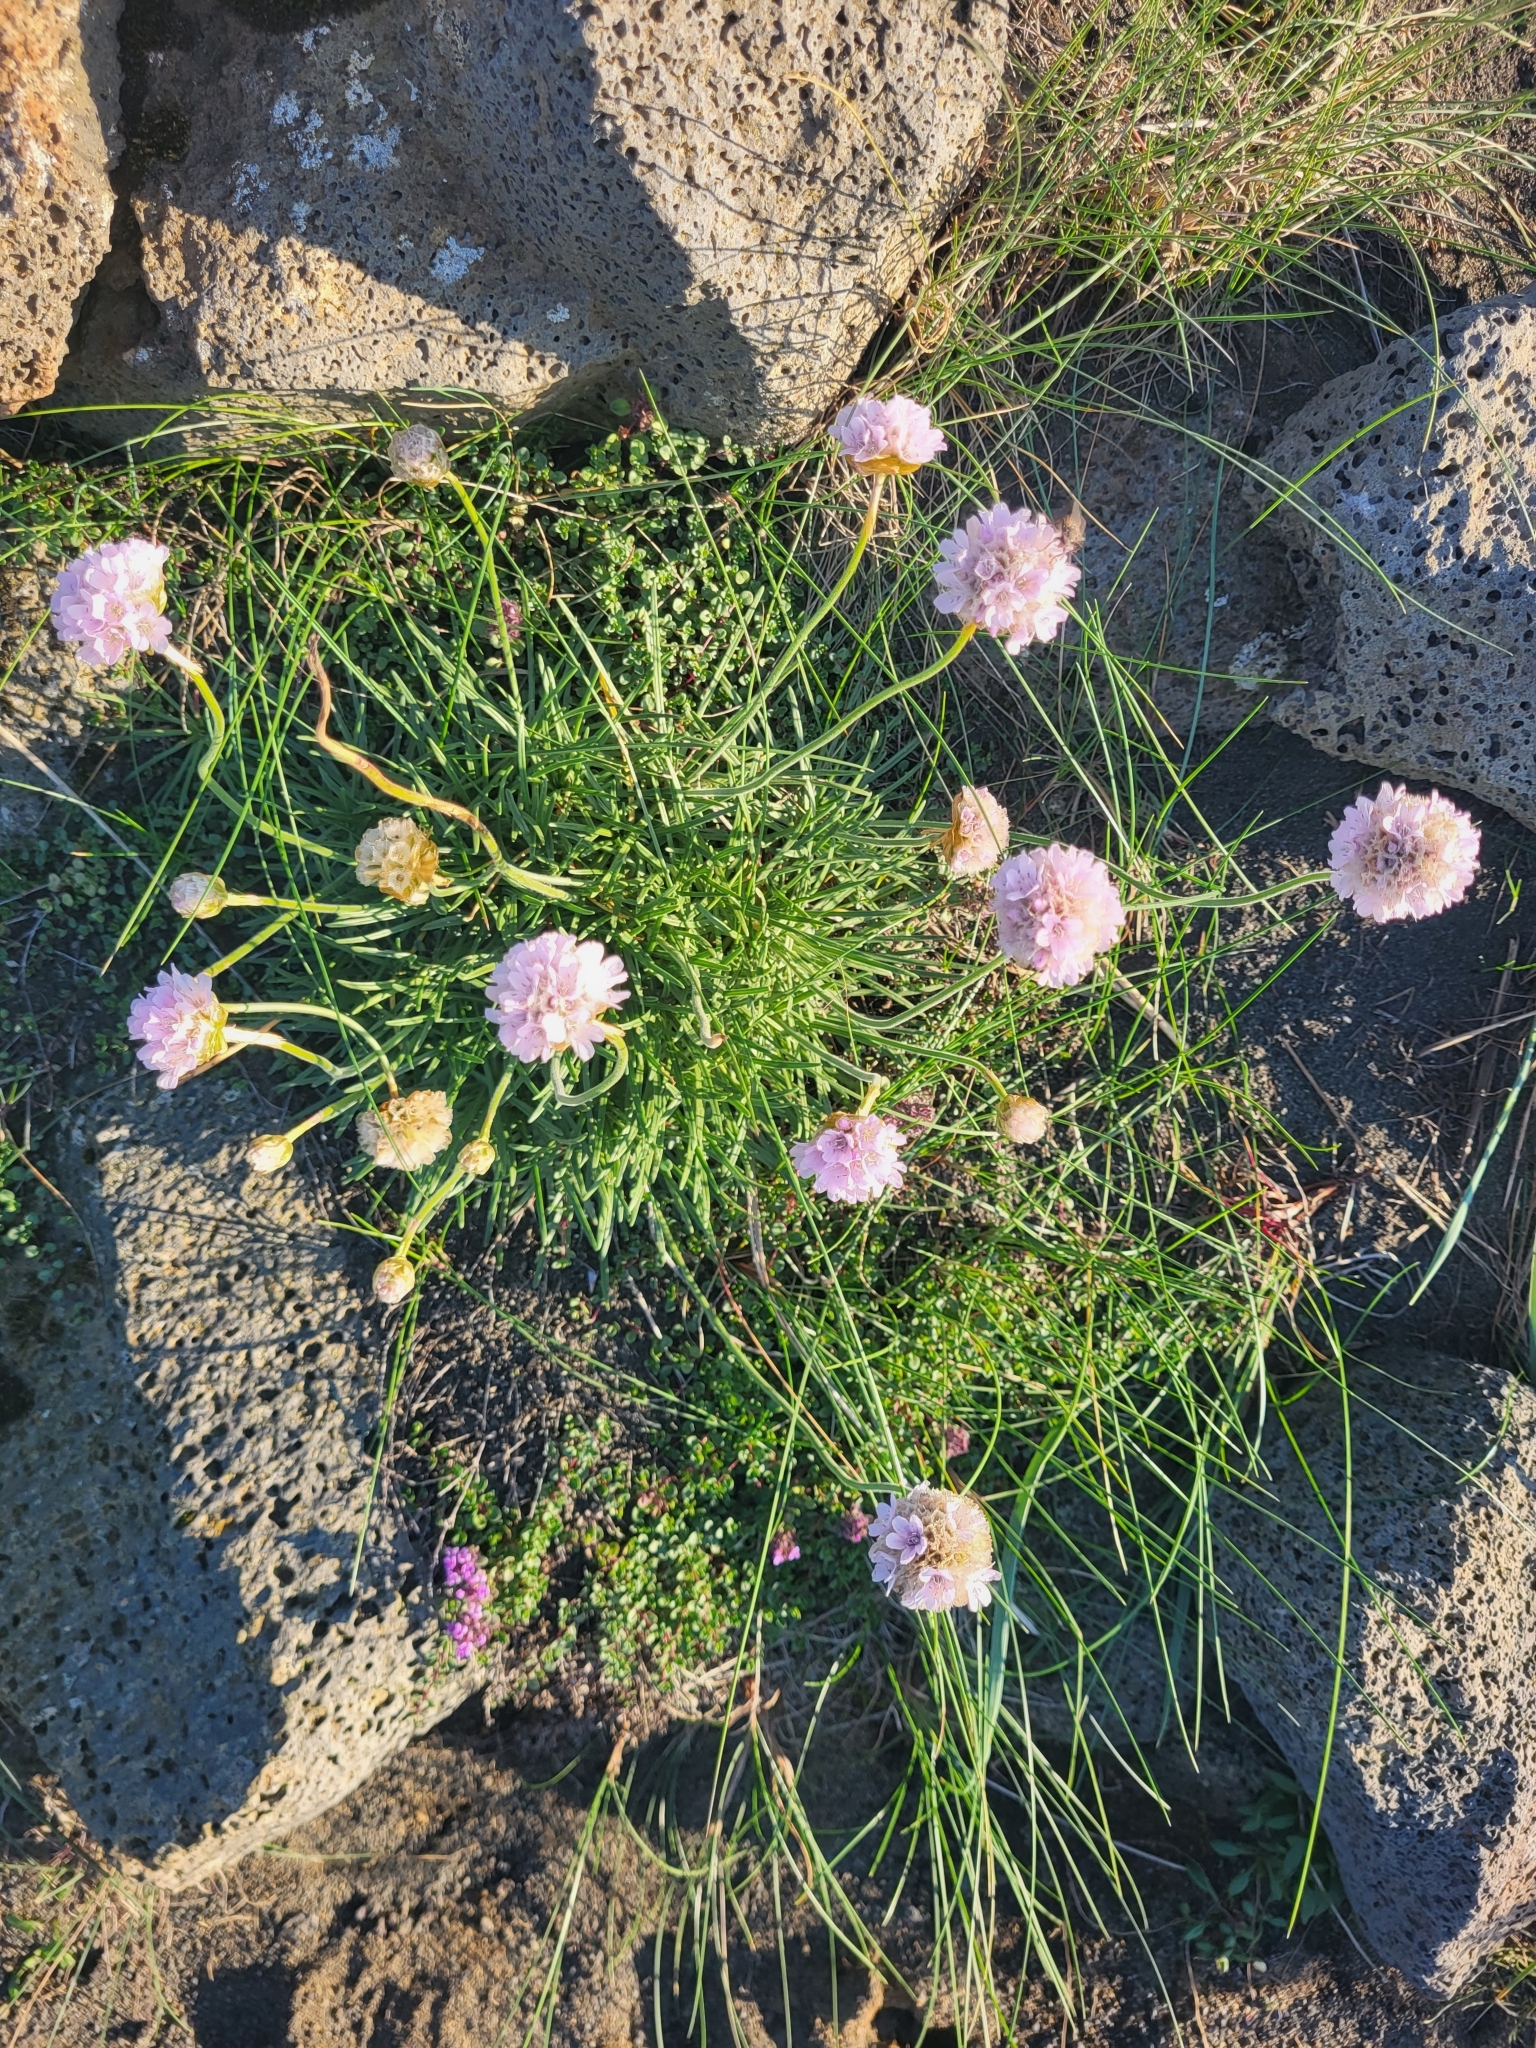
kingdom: Plantae
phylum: Tracheophyta
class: Magnoliopsida
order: Caryophyllales
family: Plumbaginaceae
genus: Armeria
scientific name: Armeria maritima
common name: Thrift
